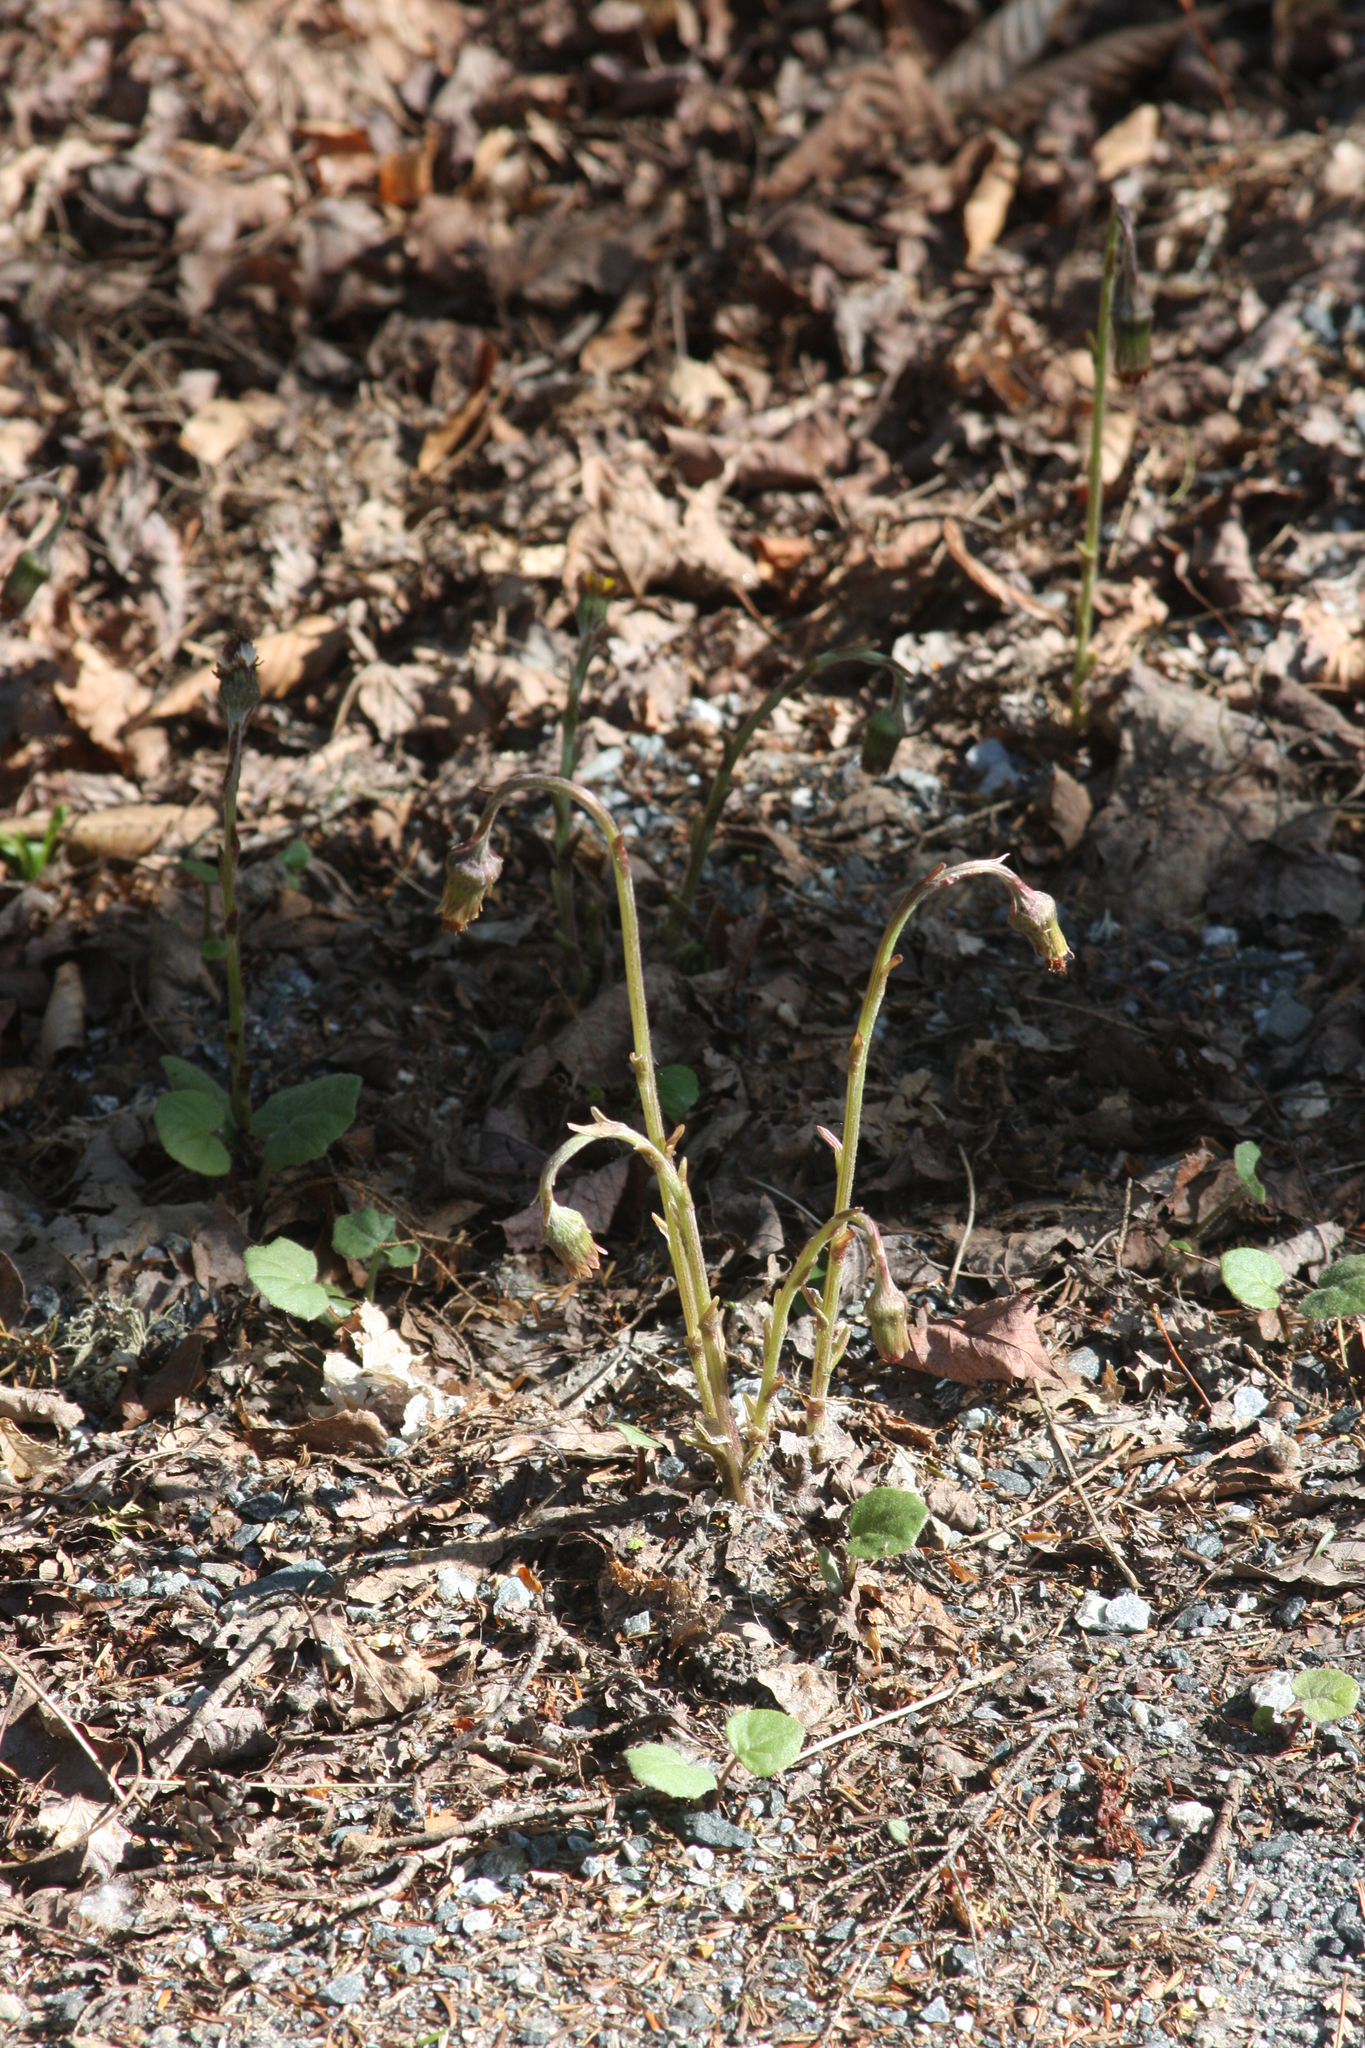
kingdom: Plantae
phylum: Tracheophyta
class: Magnoliopsida
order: Asterales
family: Asteraceae
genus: Tussilago
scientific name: Tussilago farfara
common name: Coltsfoot
